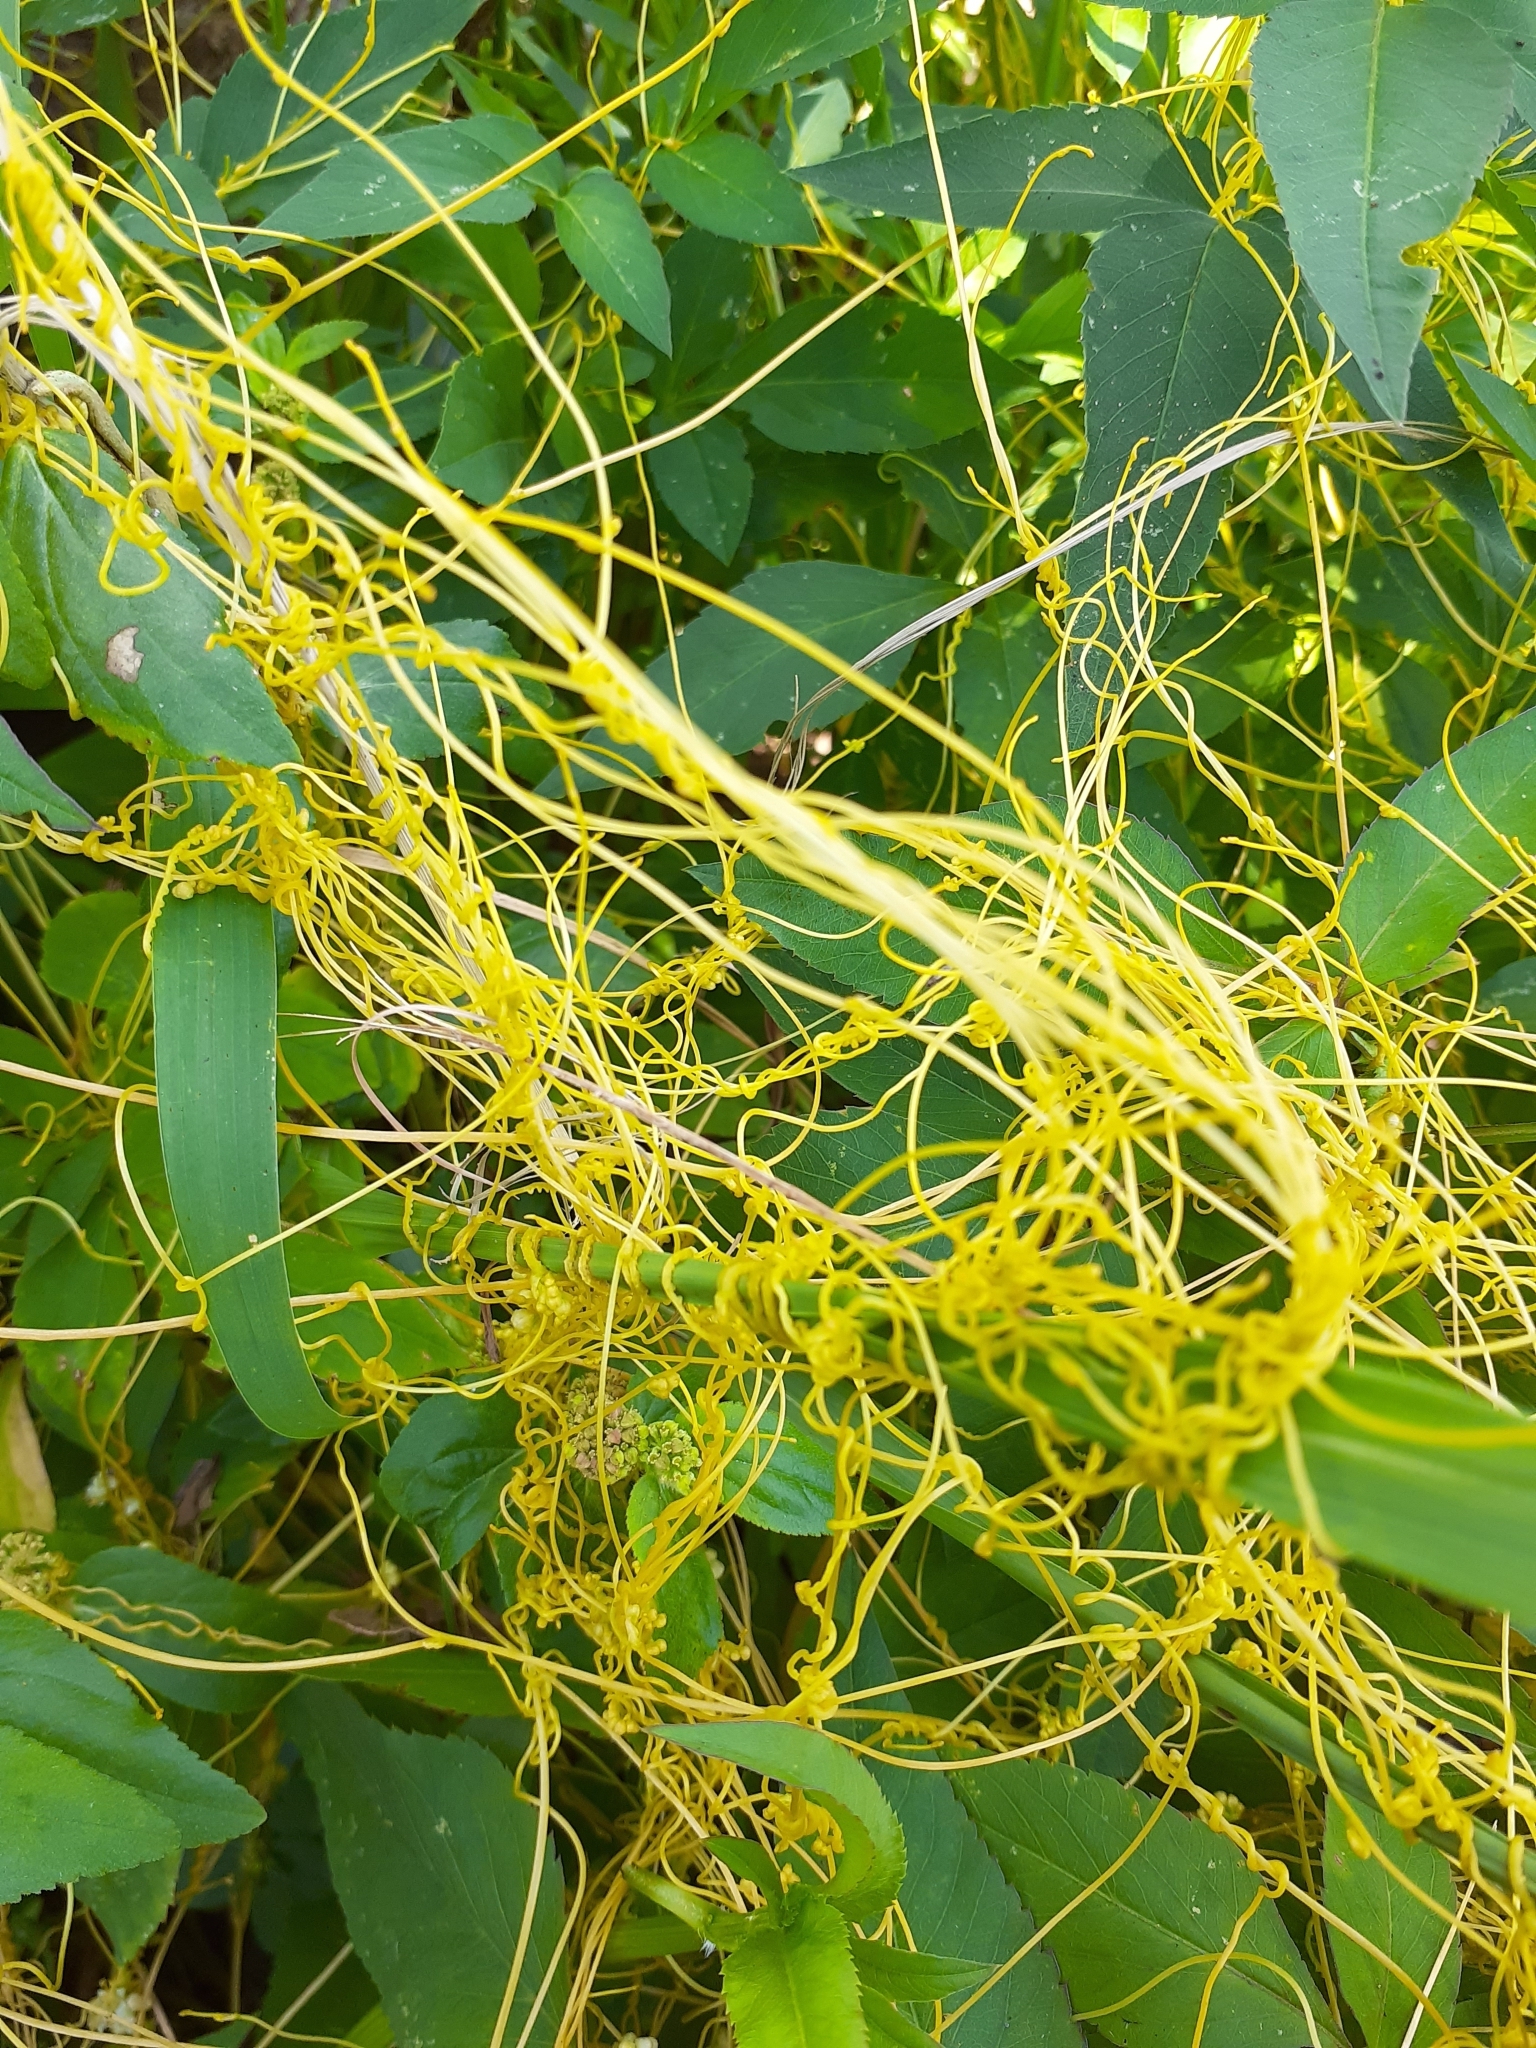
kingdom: Plantae
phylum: Tracheophyta
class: Magnoliopsida
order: Solanales
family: Convolvulaceae
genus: Cuscuta
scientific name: Cuscuta campestris
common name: Yellow dodder
